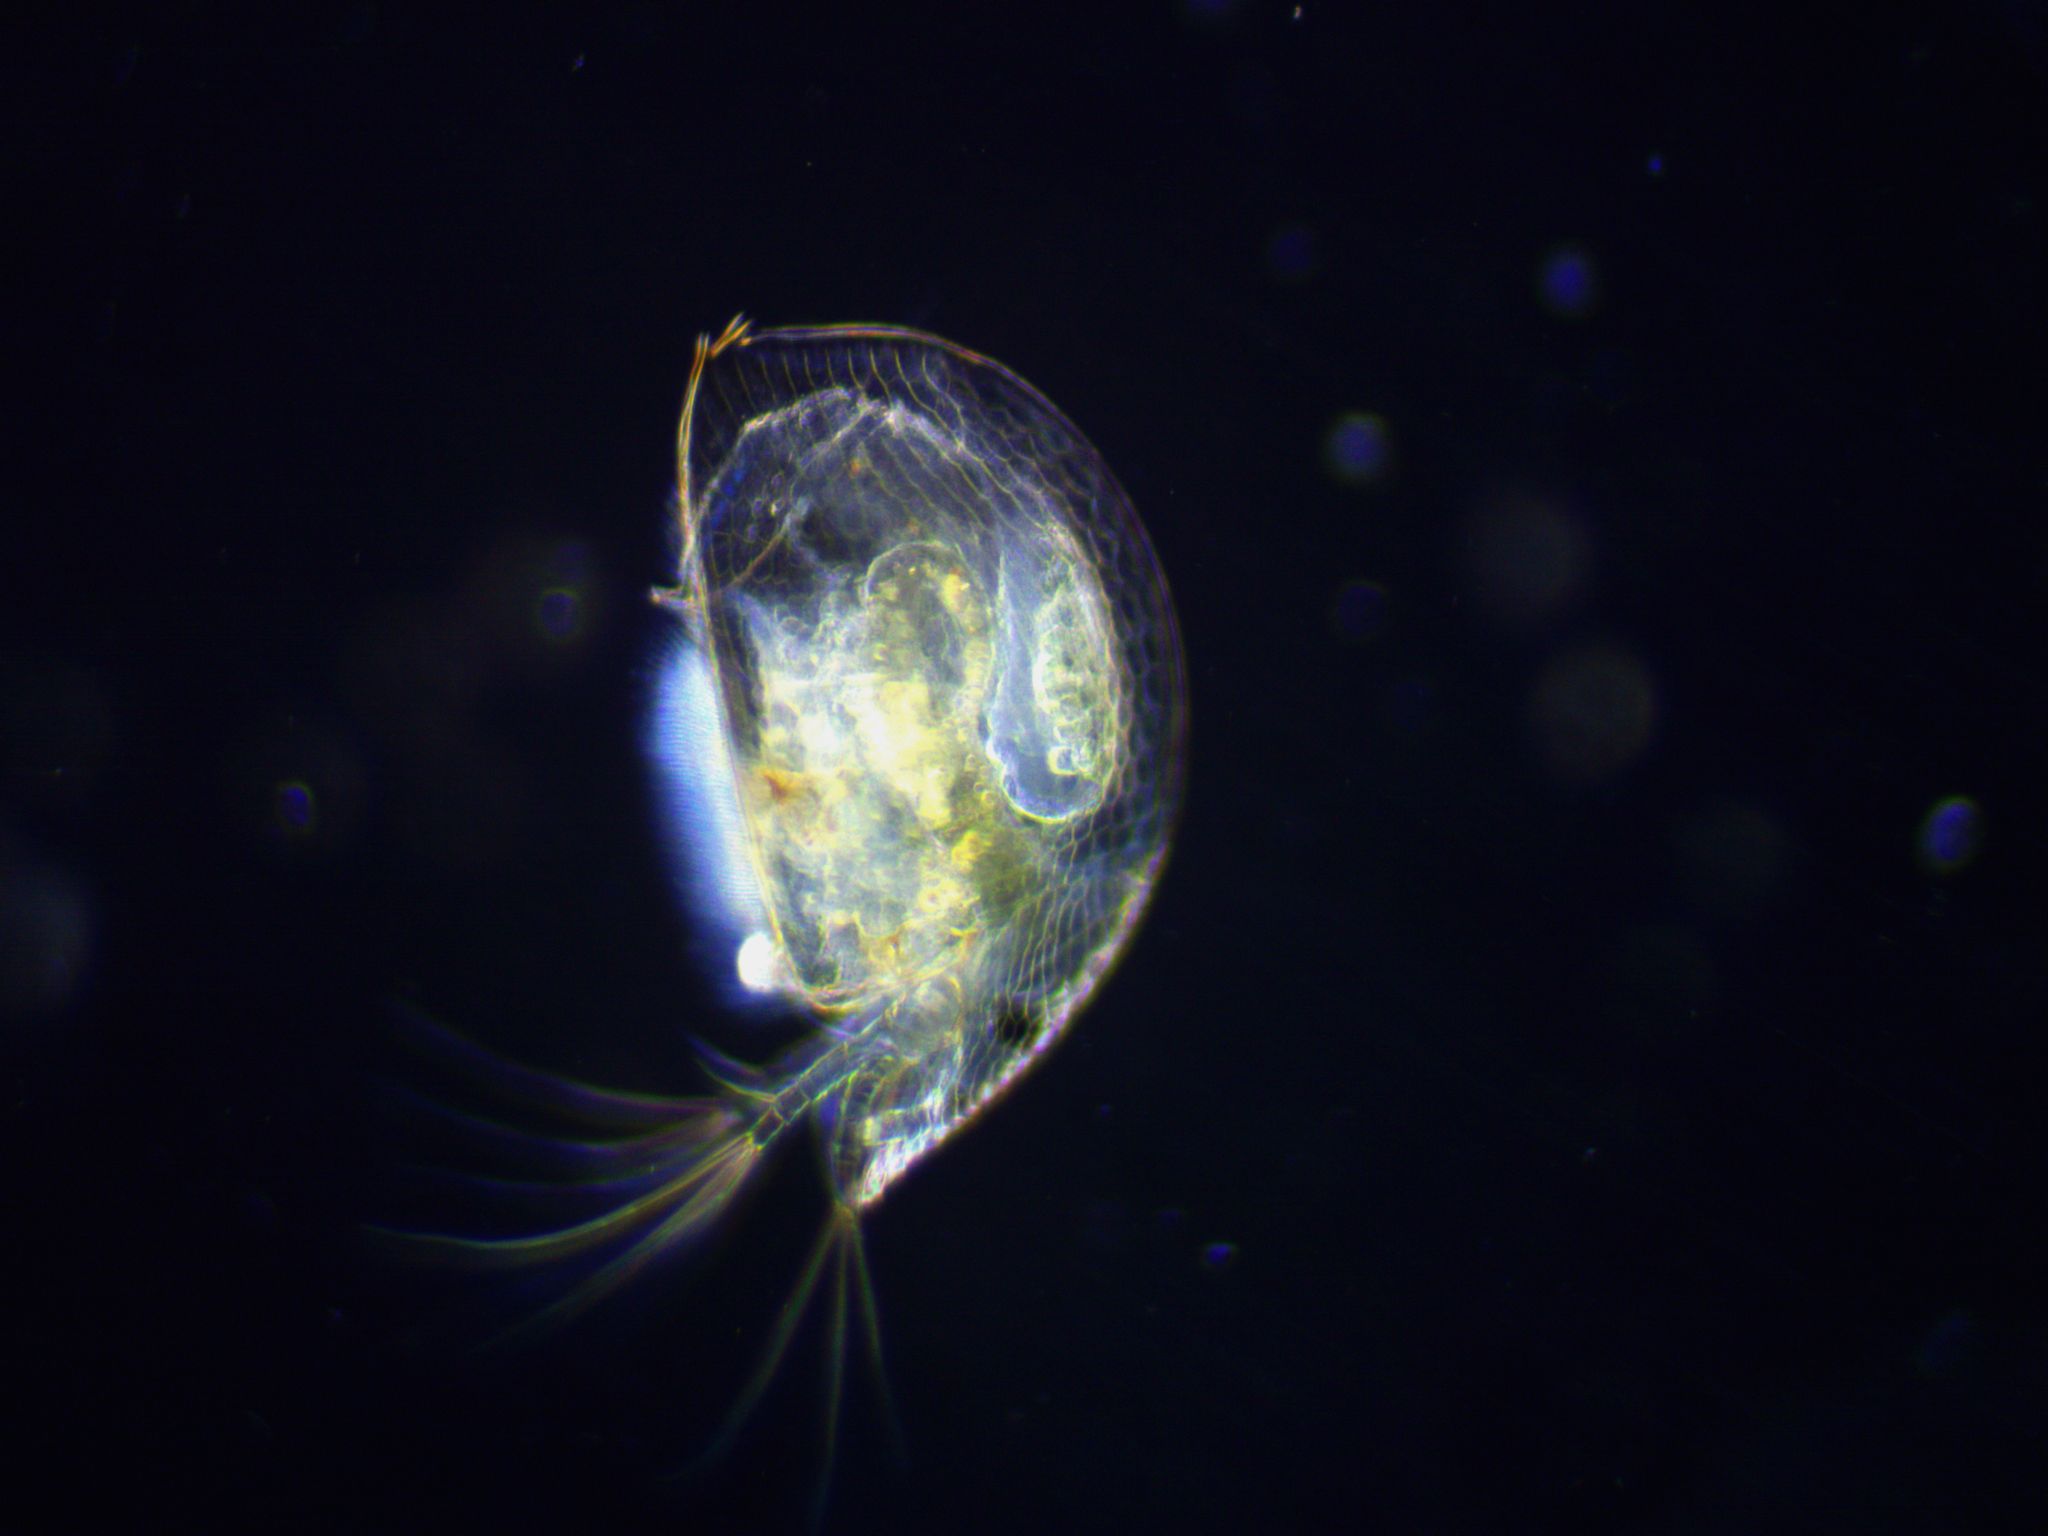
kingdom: Animalia
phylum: Arthropoda
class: Branchiopoda
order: Diplostraca
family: Chydoridae
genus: Graptoleberis
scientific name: Graptoleberis testudinaria
